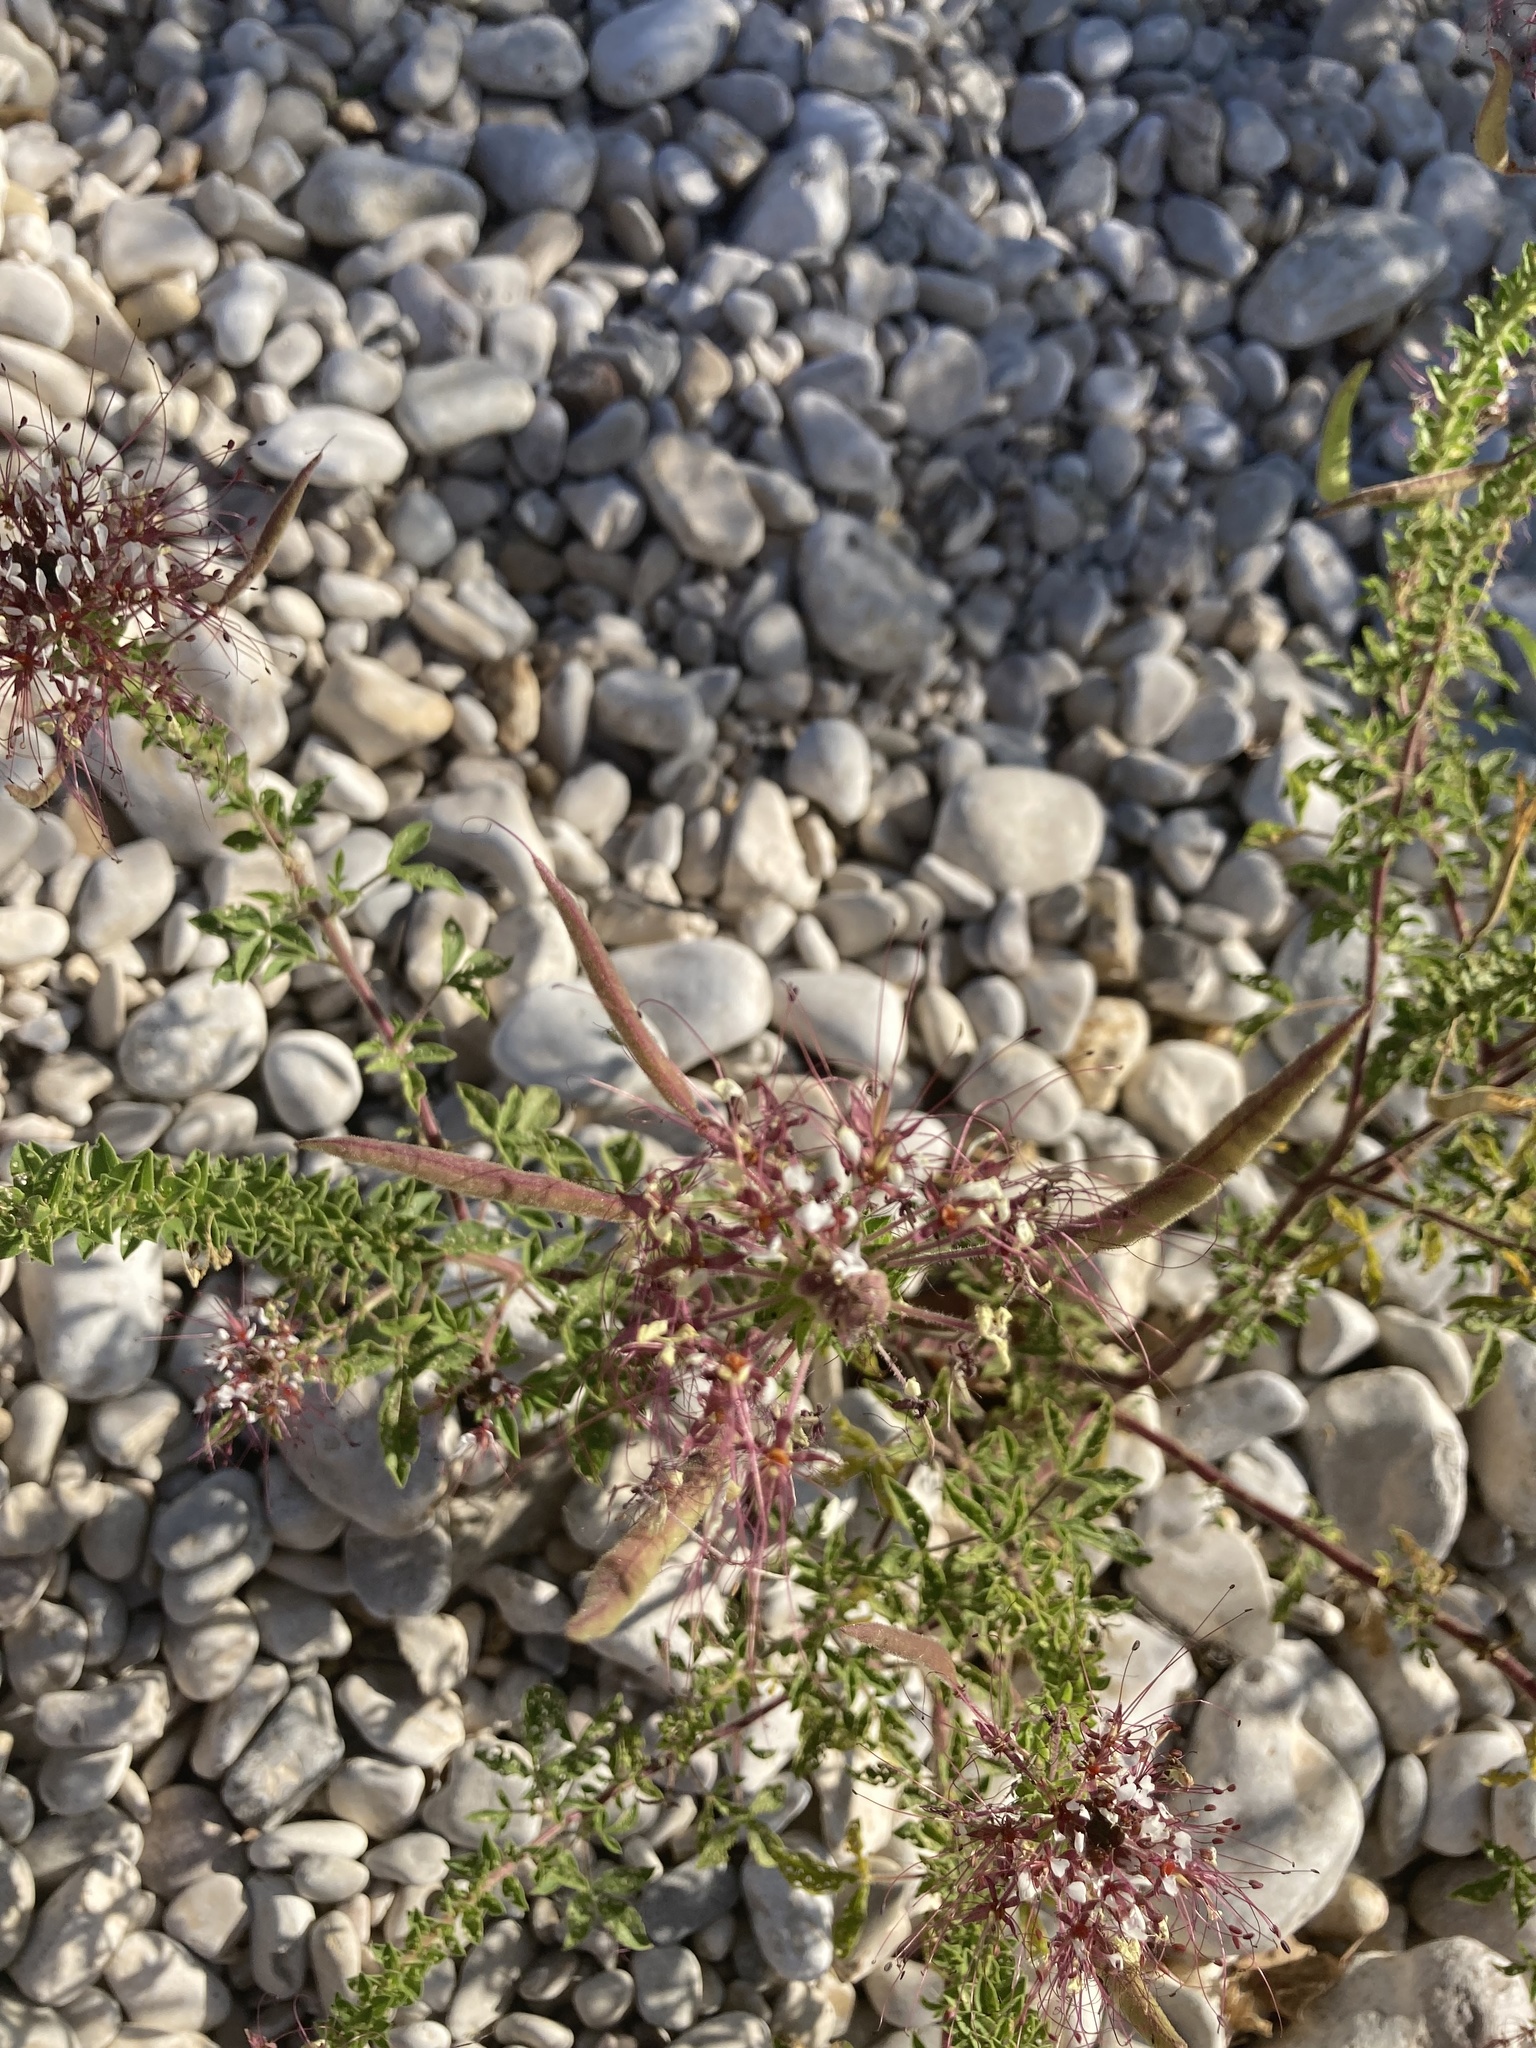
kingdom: Plantae
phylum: Tracheophyta
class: Magnoliopsida
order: Brassicales
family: Cleomaceae
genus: Polanisia
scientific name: Polanisia dodecandra
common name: Clammyweed
